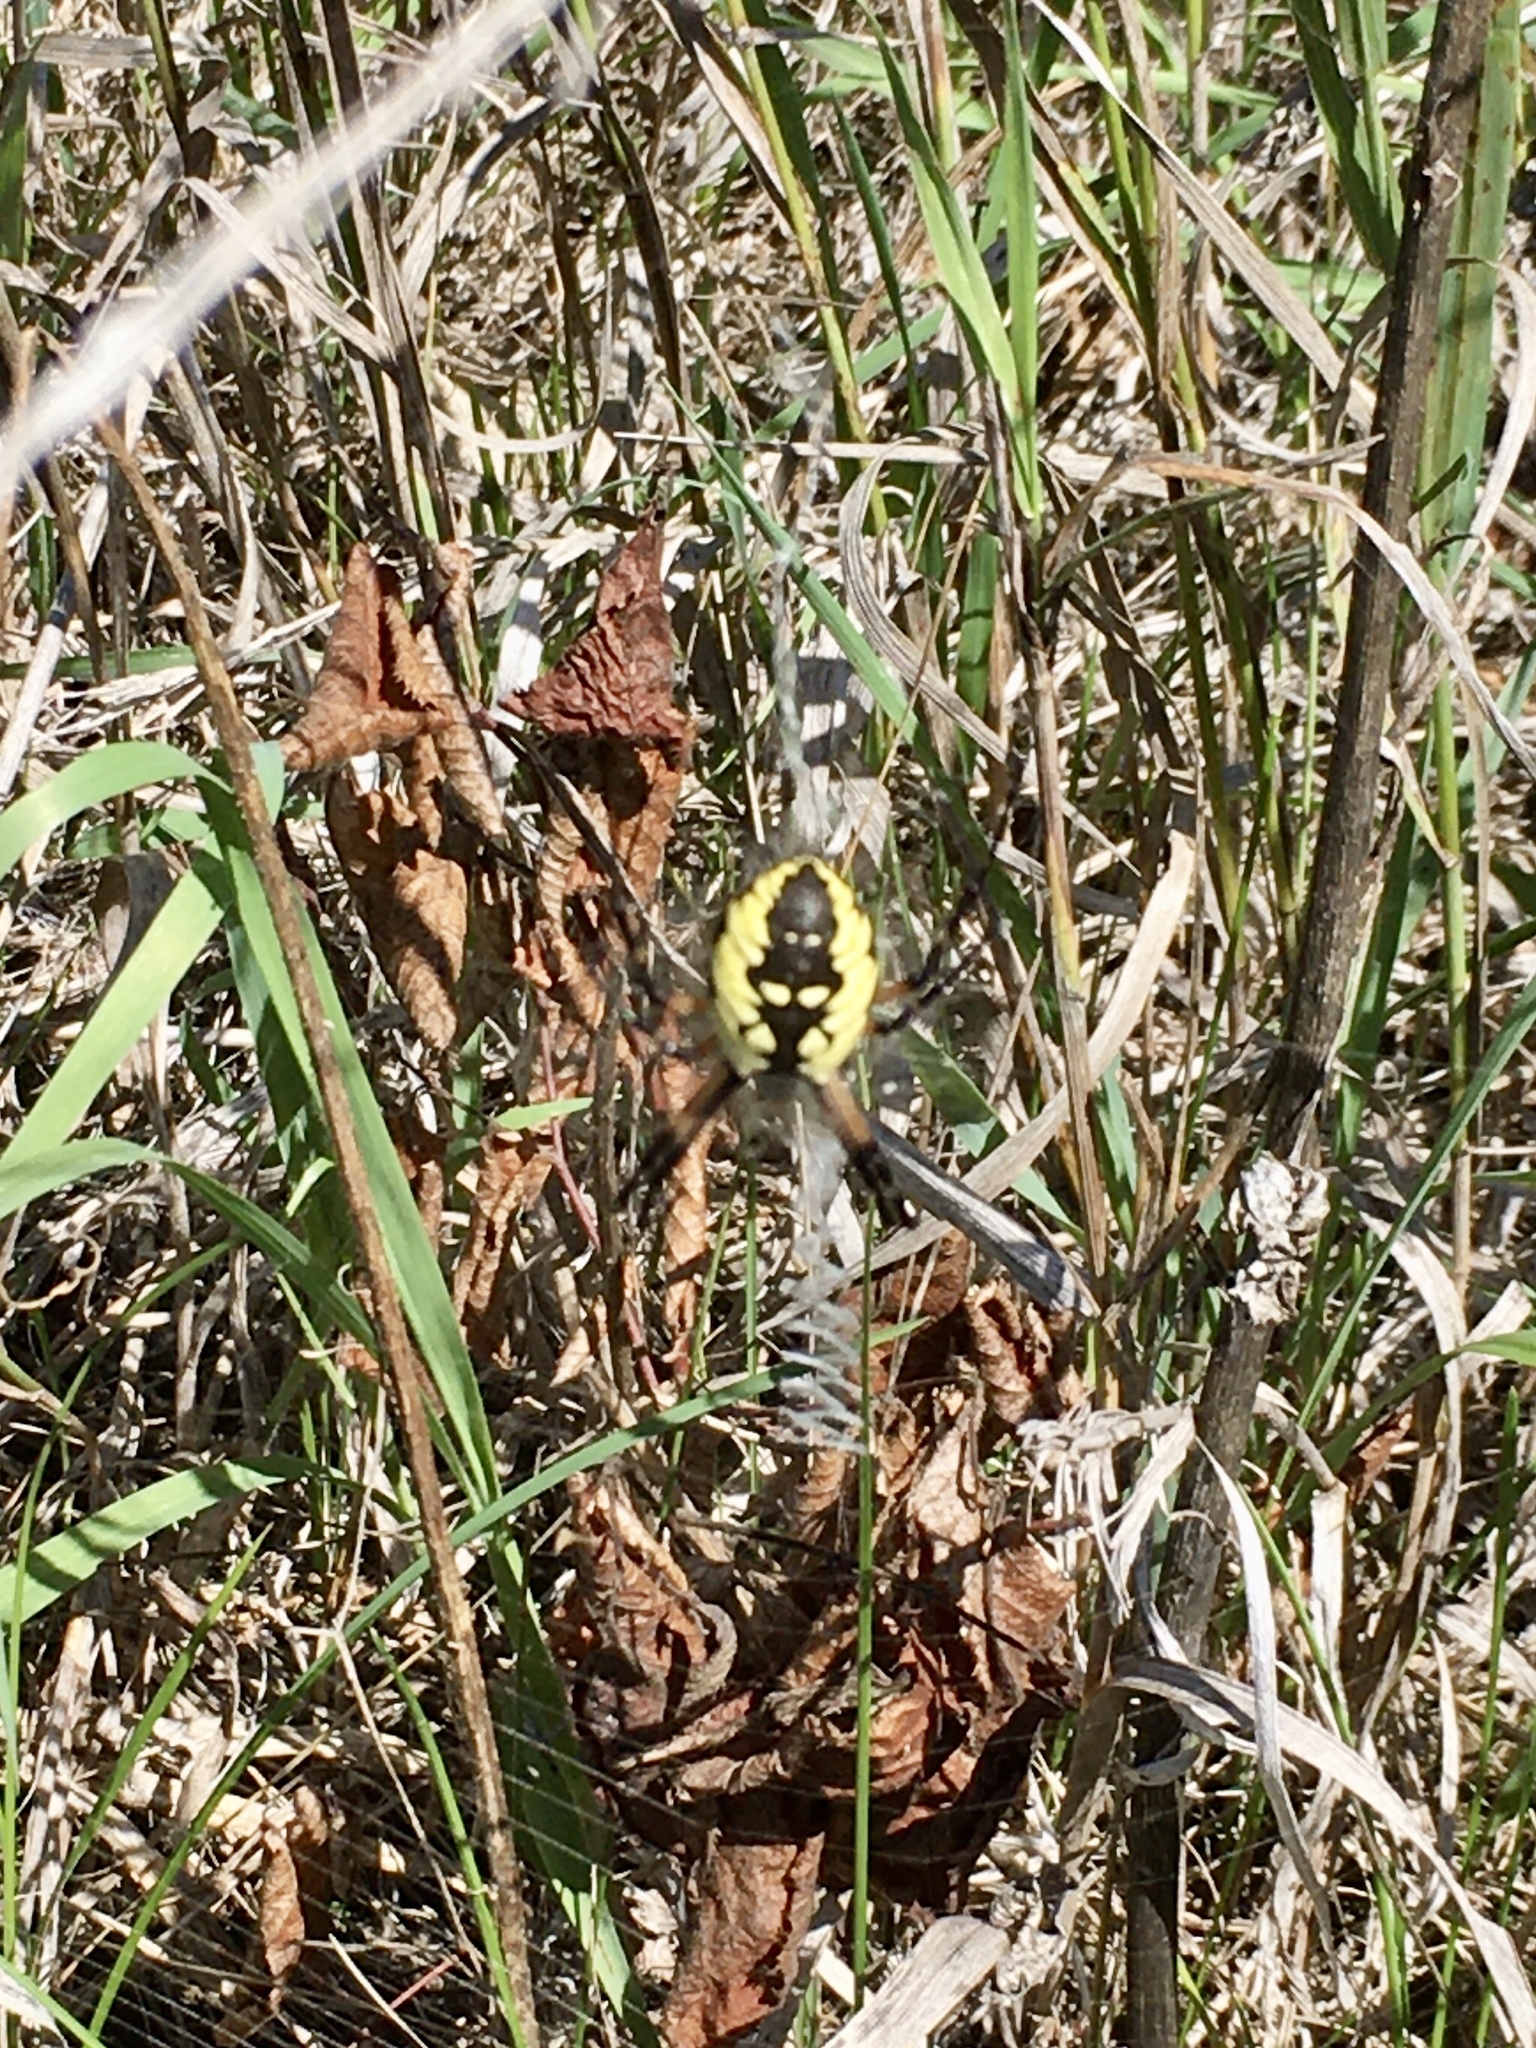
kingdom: Animalia
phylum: Arthropoda
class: Arachnida
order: Araneae
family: Araneidae
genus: Argiope
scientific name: Argiope aurantia
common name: Orb weavers
